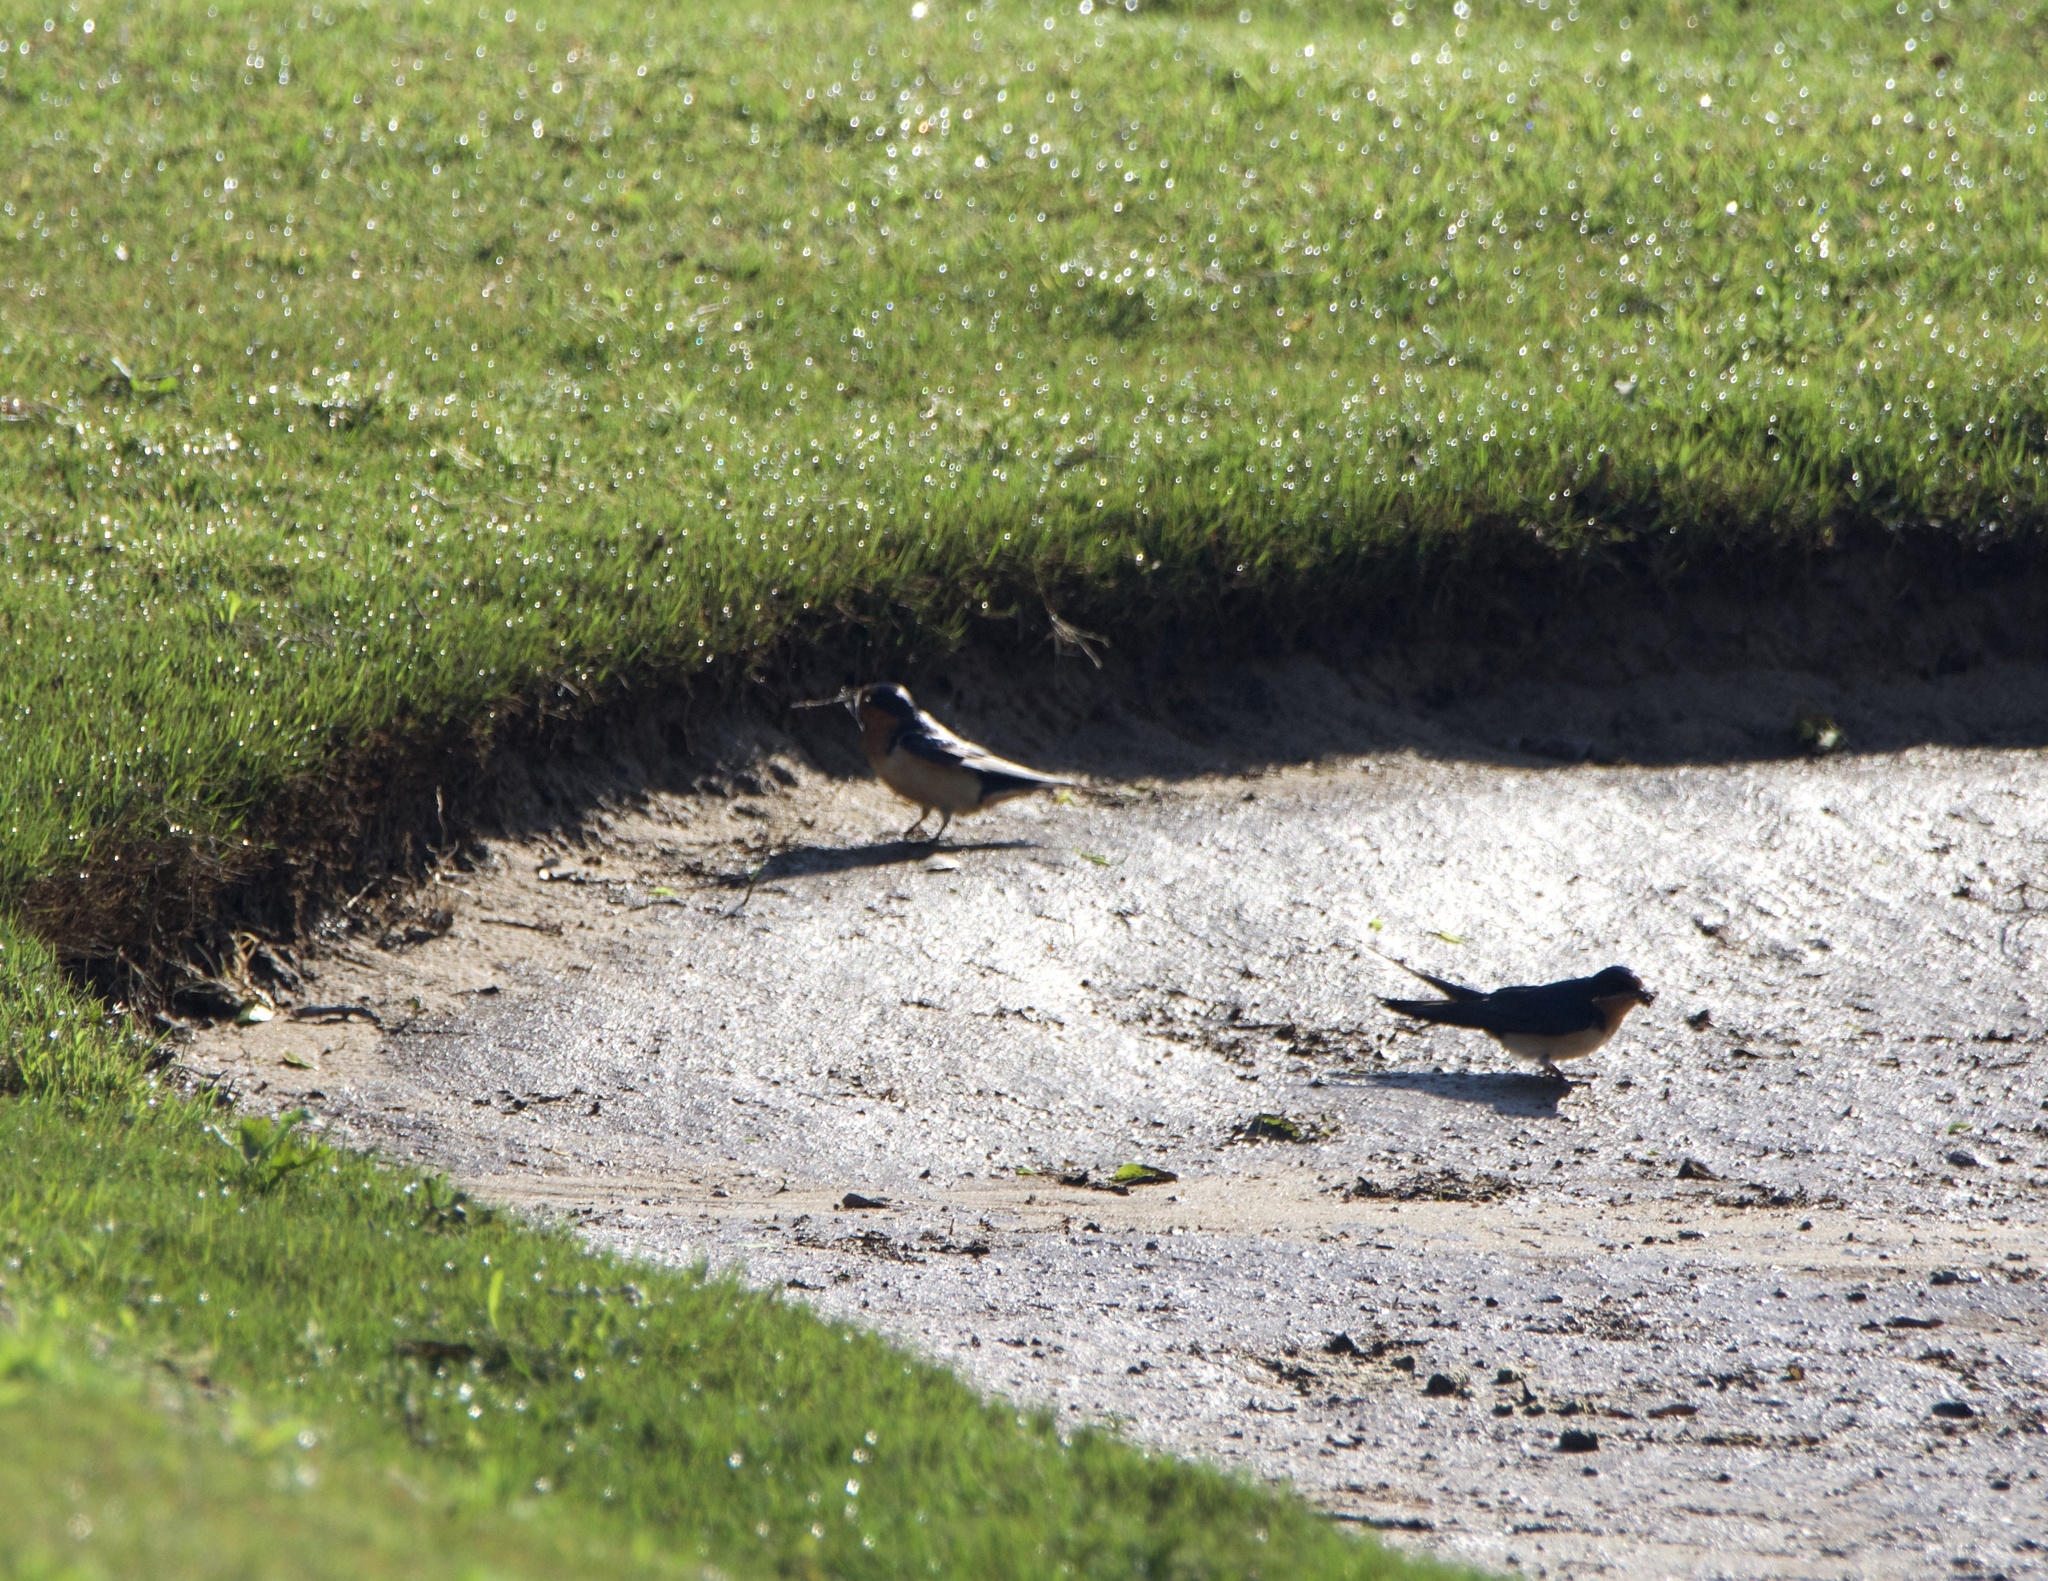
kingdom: Animalia
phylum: Chordata
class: Aves
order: Passeriformes
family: Hirundinidae
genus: Hirundo
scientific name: Hirundo rustica
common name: Barn swallow
